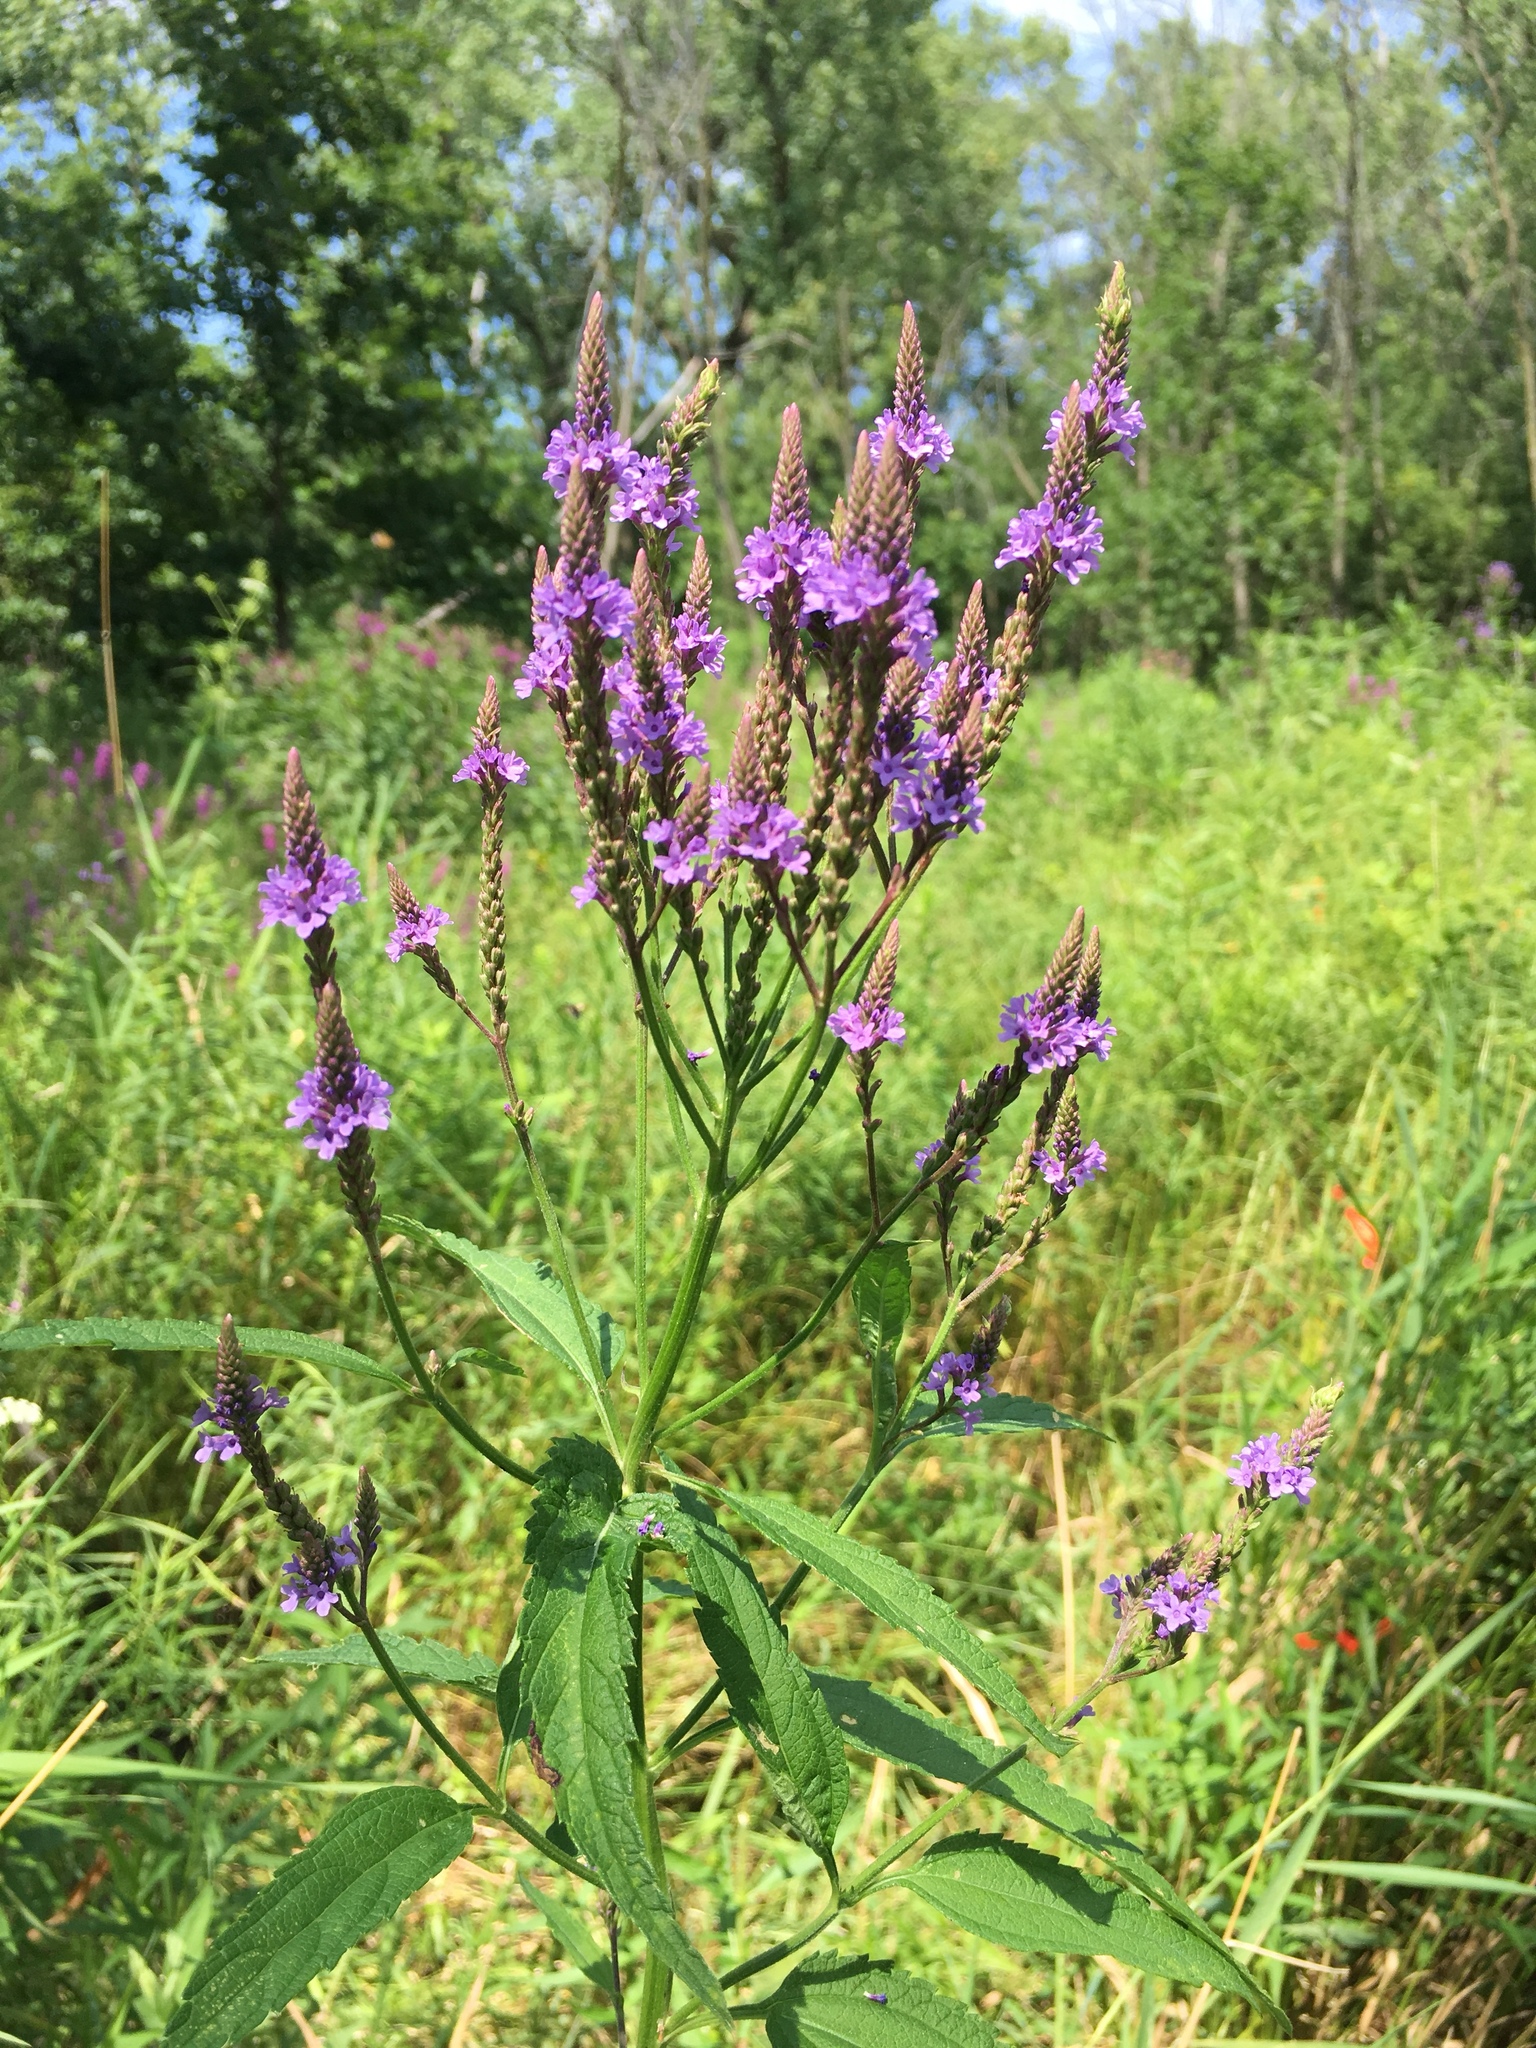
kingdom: Plantae
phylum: Tracheophyta
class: Magnoliopsida
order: Lamiales
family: Verbenaceae
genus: Verbena
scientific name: Verbena hastata
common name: American blue vervain
